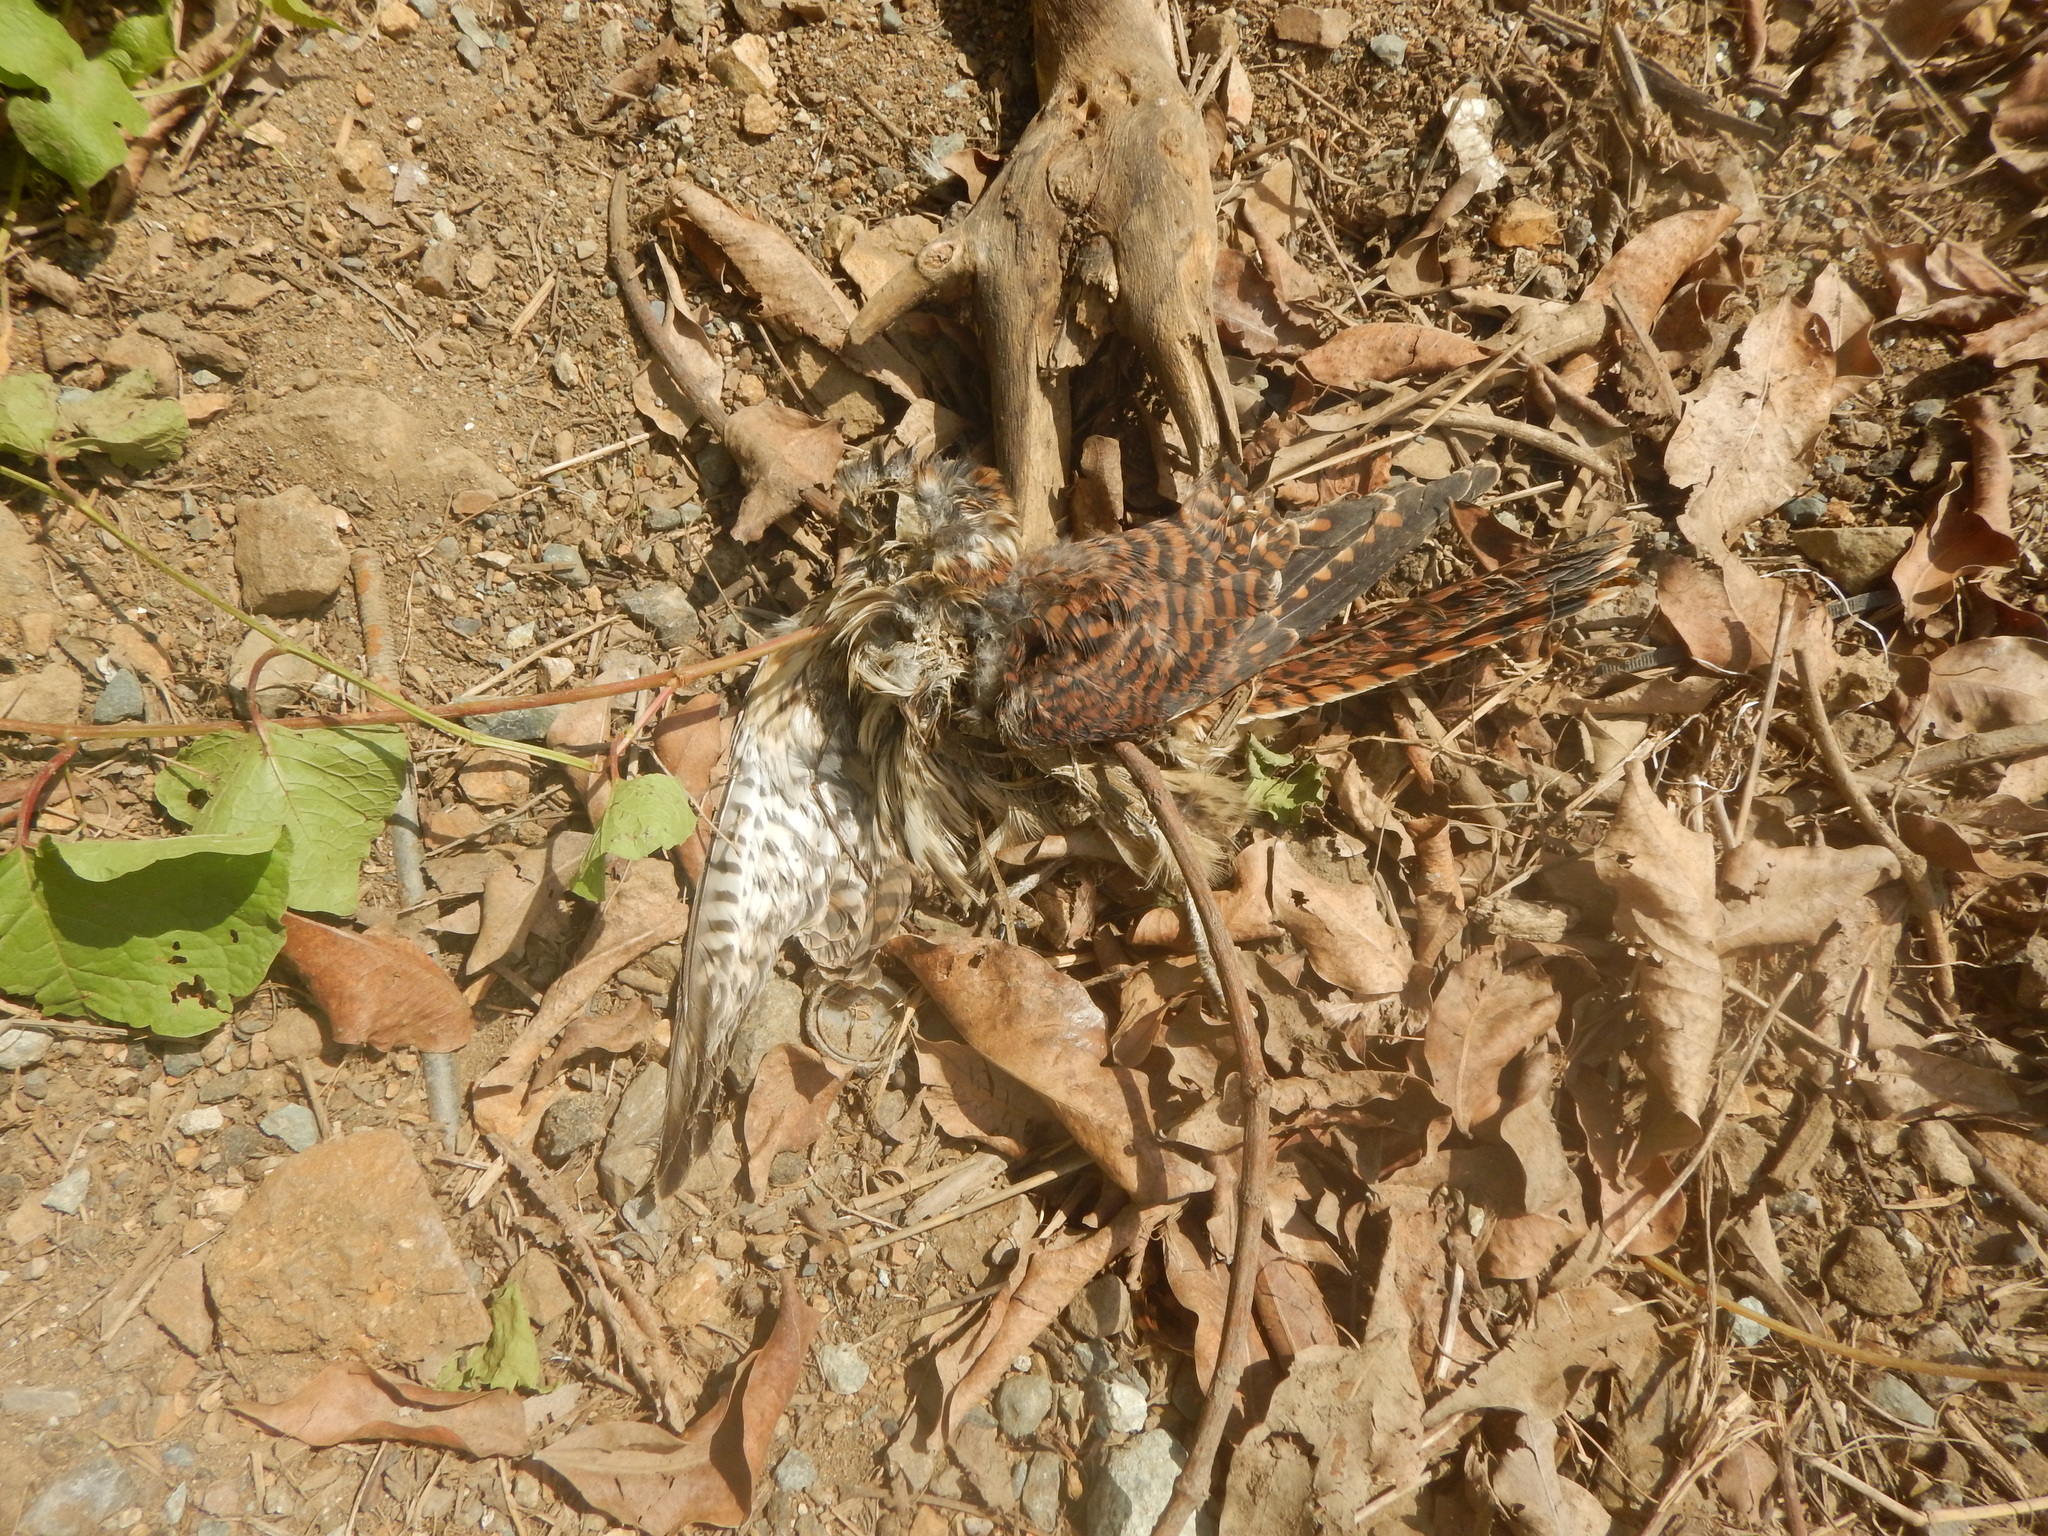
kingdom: Animalia
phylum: Chordata
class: Aves
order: Falconiformes
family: Falconidae
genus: Falco
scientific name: Falco sparverius
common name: American kestrel
